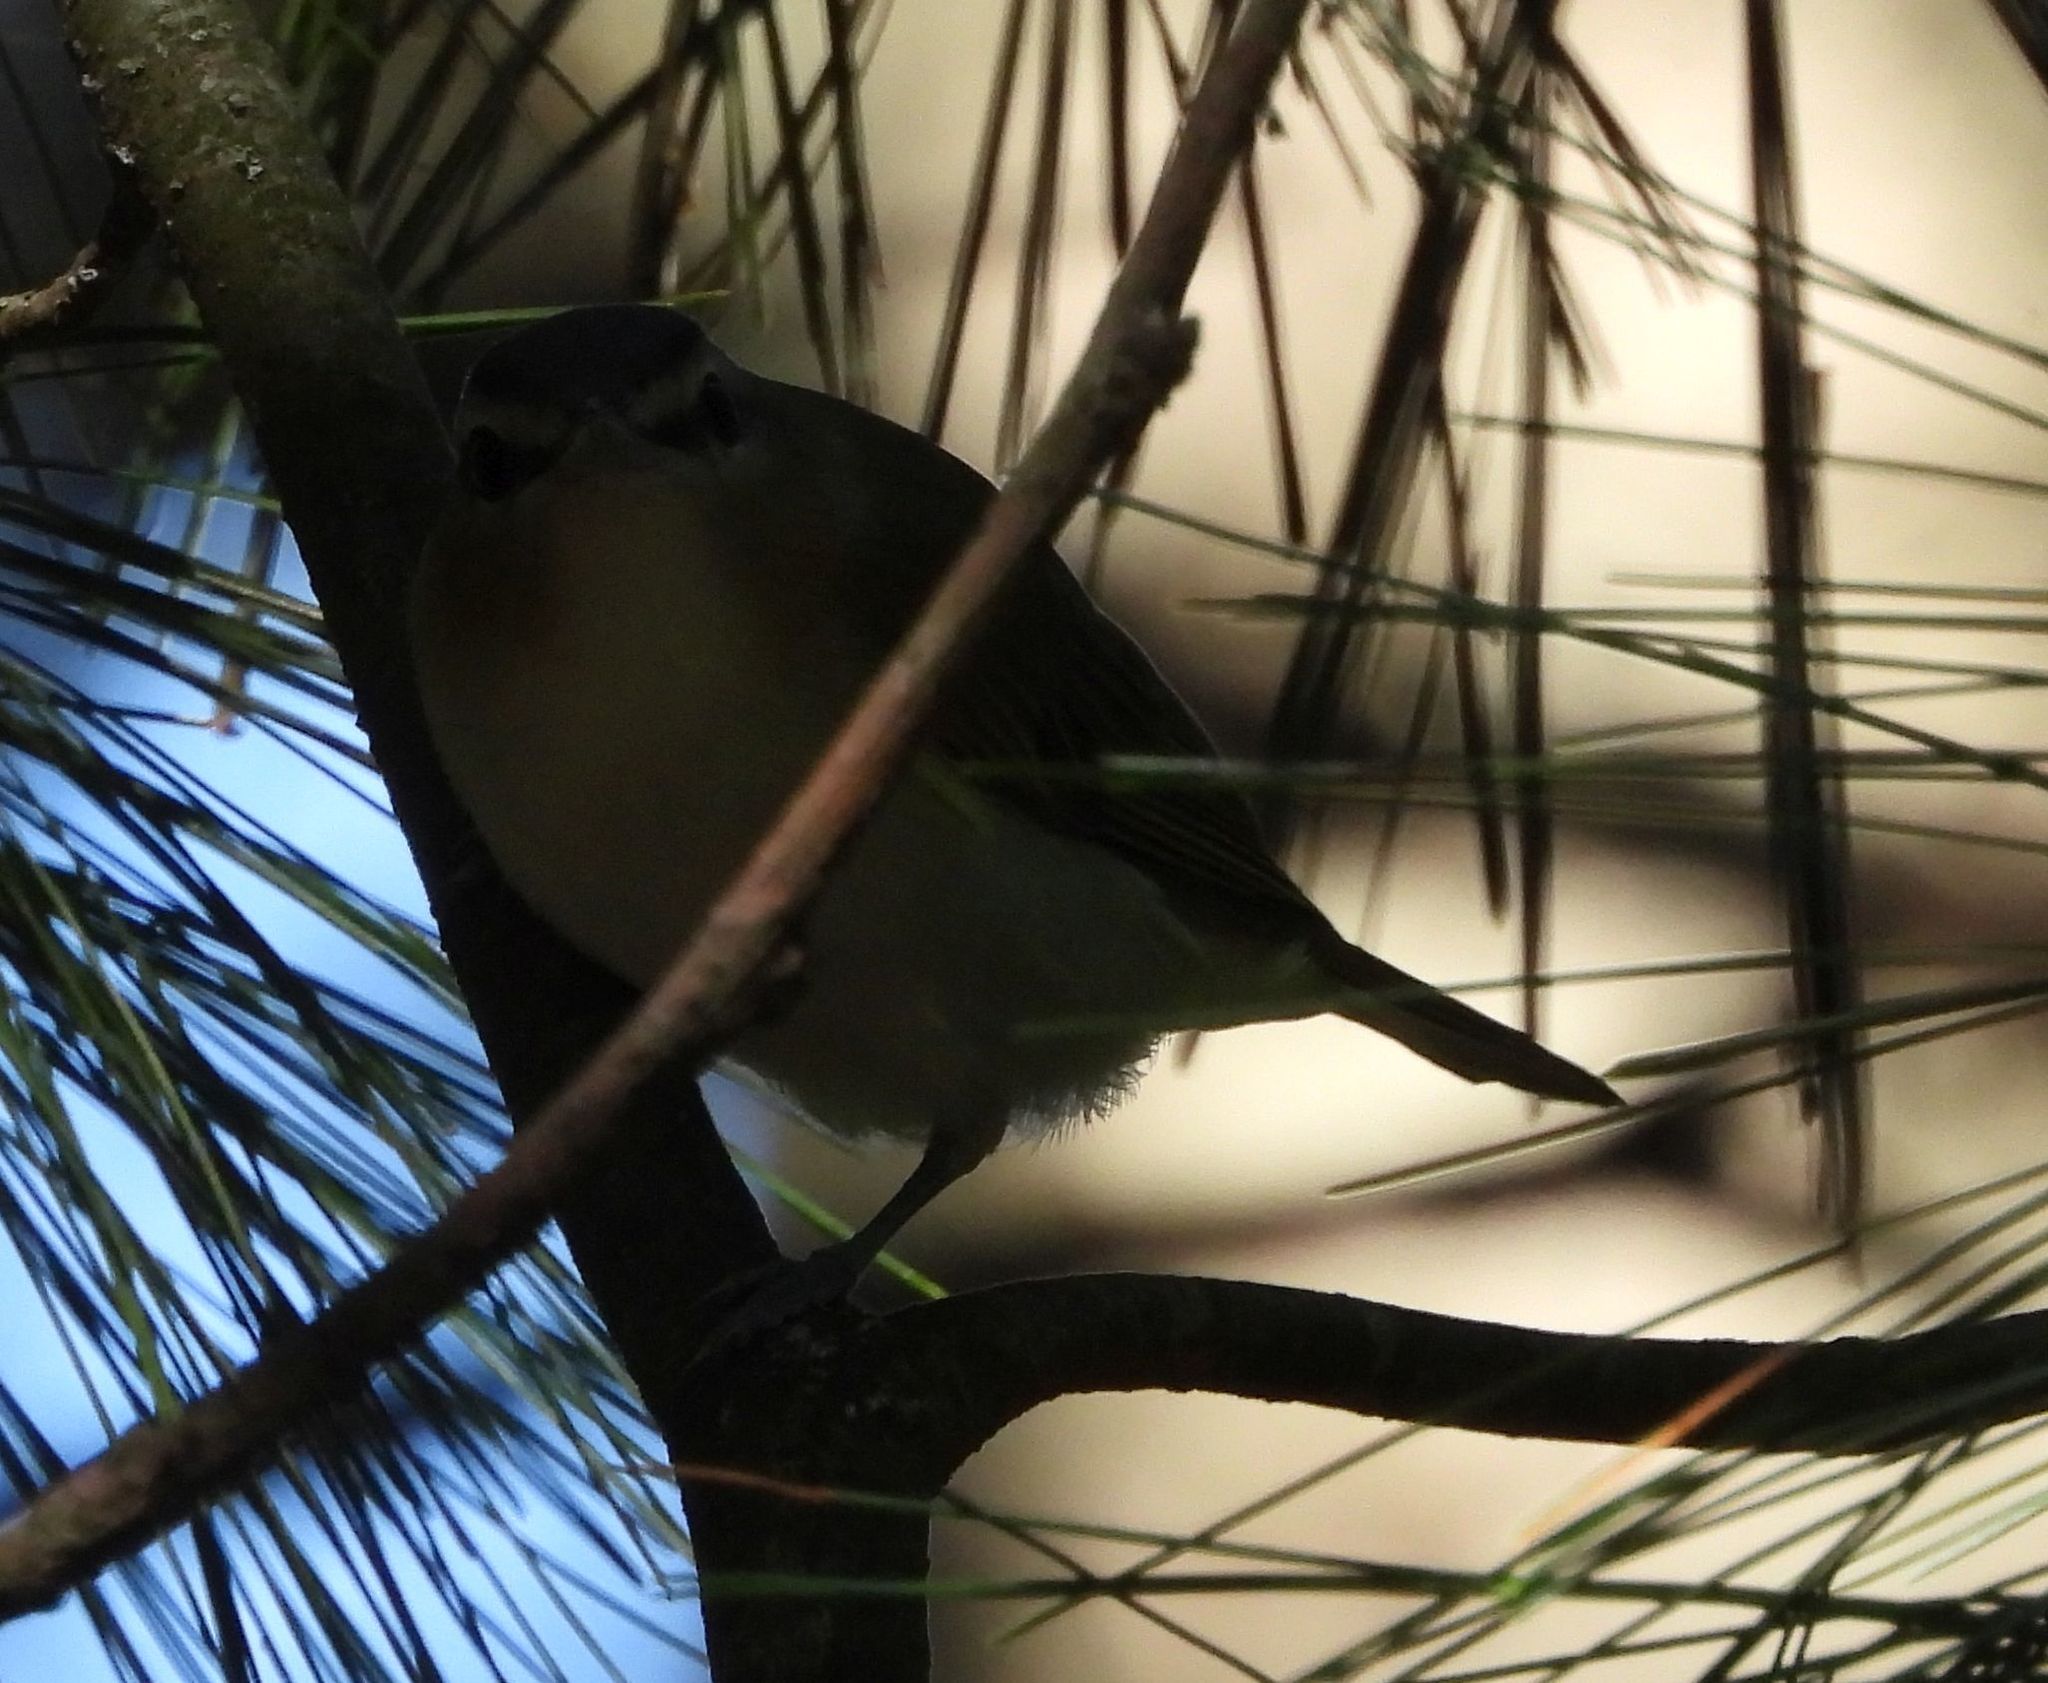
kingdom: Animalia
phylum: Chordata
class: Aves
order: Passeriformes
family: Vireonidae
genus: Vireo
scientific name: Vireo olivaceus
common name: Red-eyed vireo
